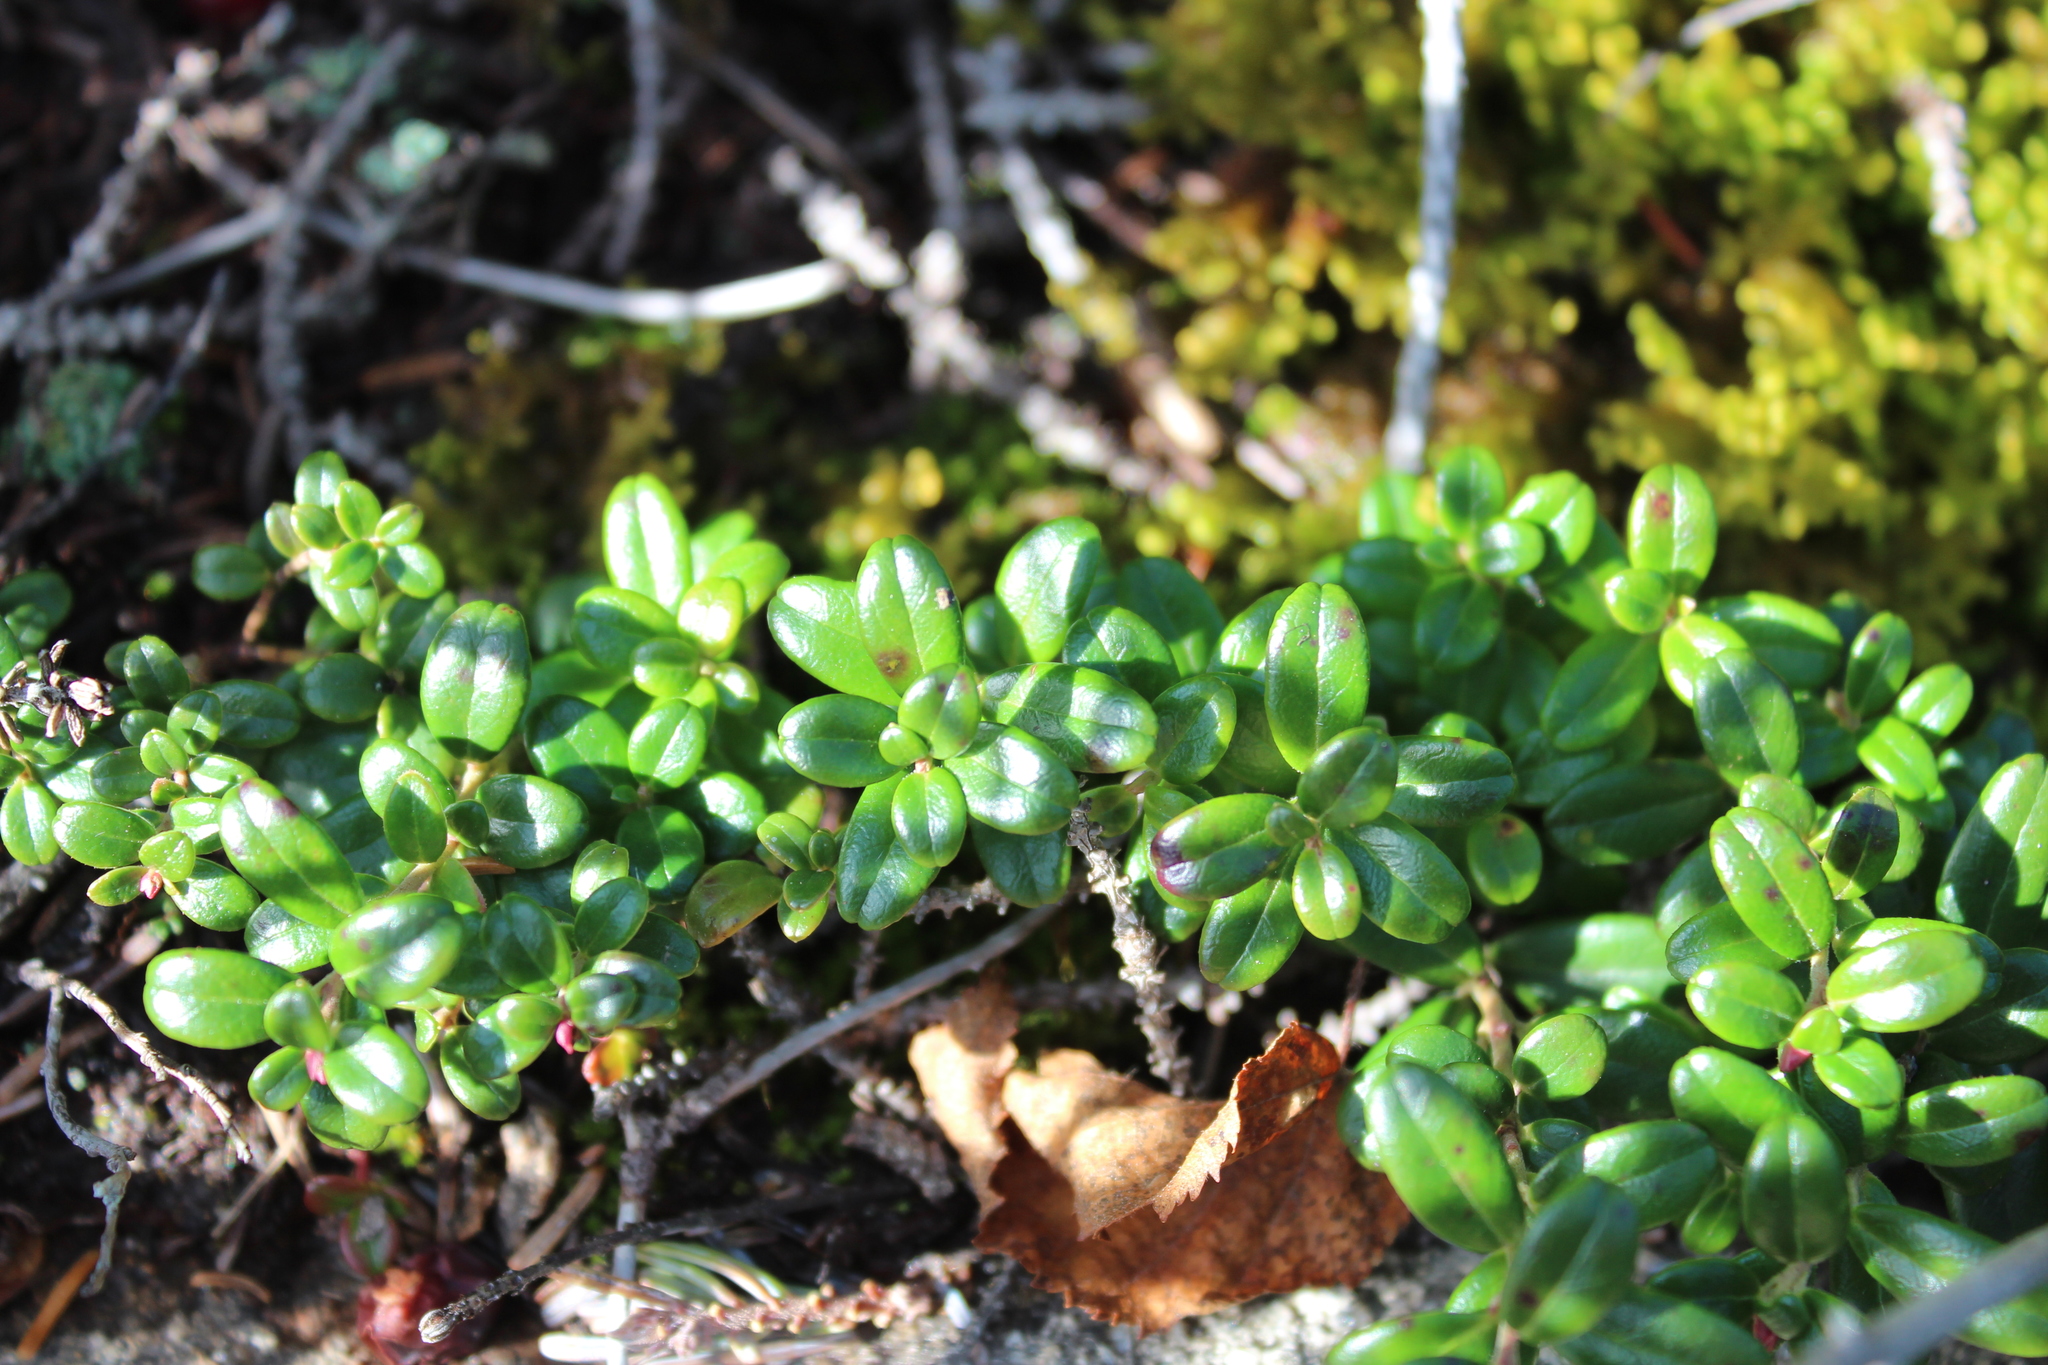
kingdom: Plantae
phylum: Tracheophyta
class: Magnoliopsida
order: Ericales
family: Ericaceae
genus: Vaccinium
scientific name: Vaccinium vitis-idaea
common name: Cowberry
